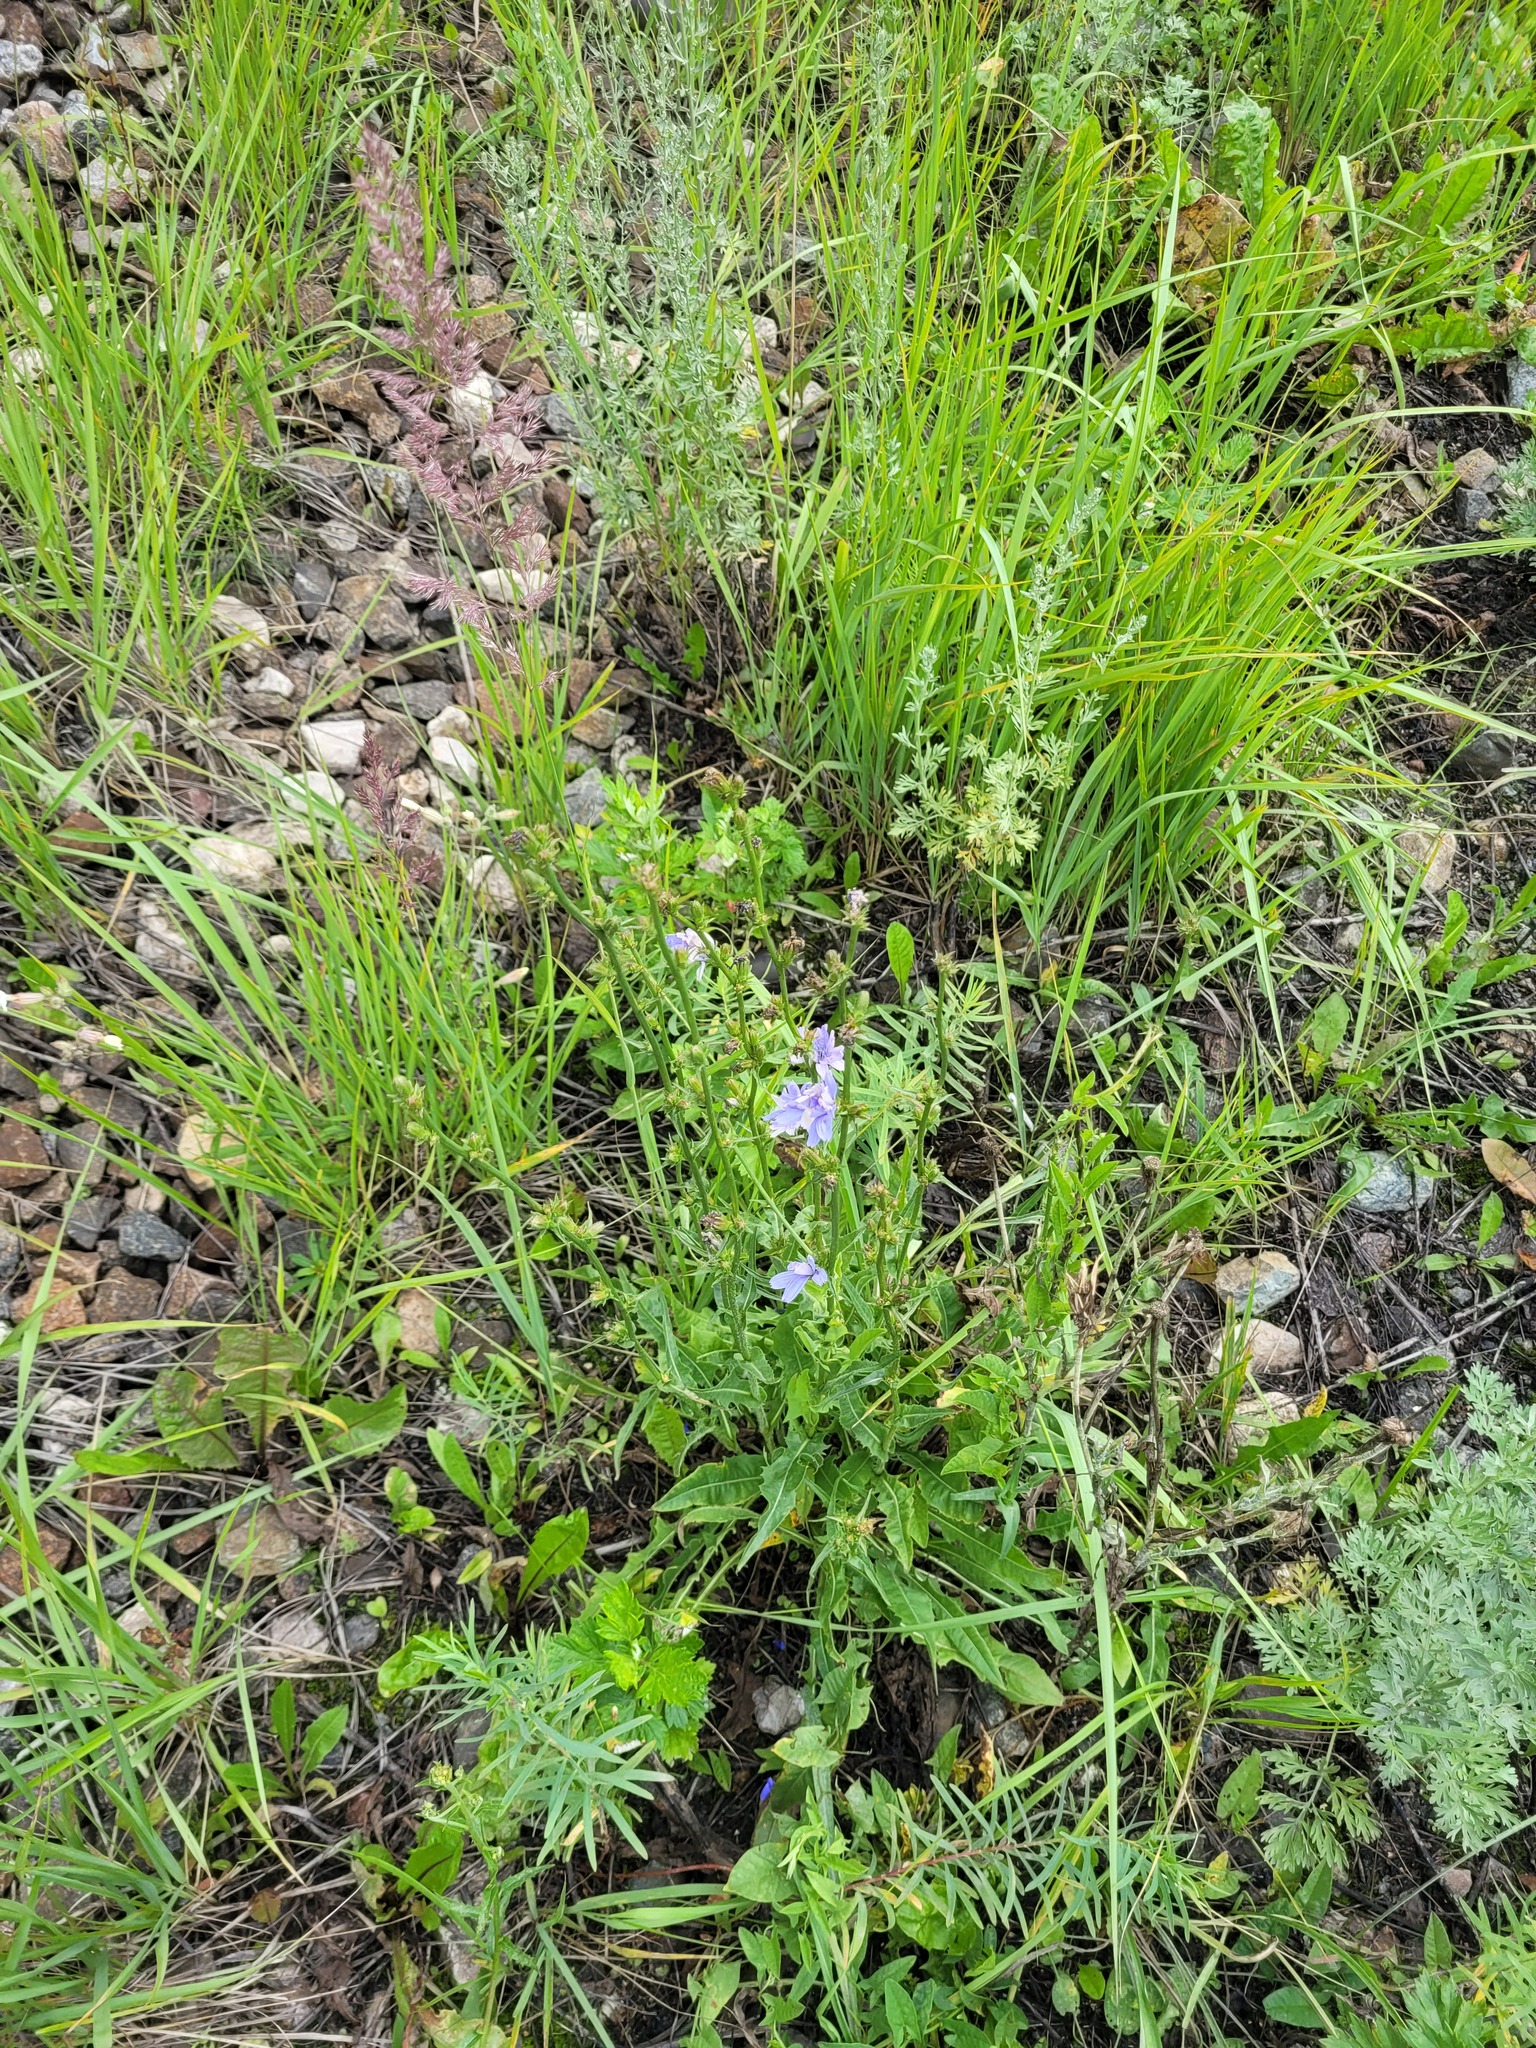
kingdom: Plantae
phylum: Tracheophyta
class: Magnoliopsida
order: Asterales
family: Asteraceae
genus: Cichorium
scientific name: Cichorium intybus
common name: Chicory
